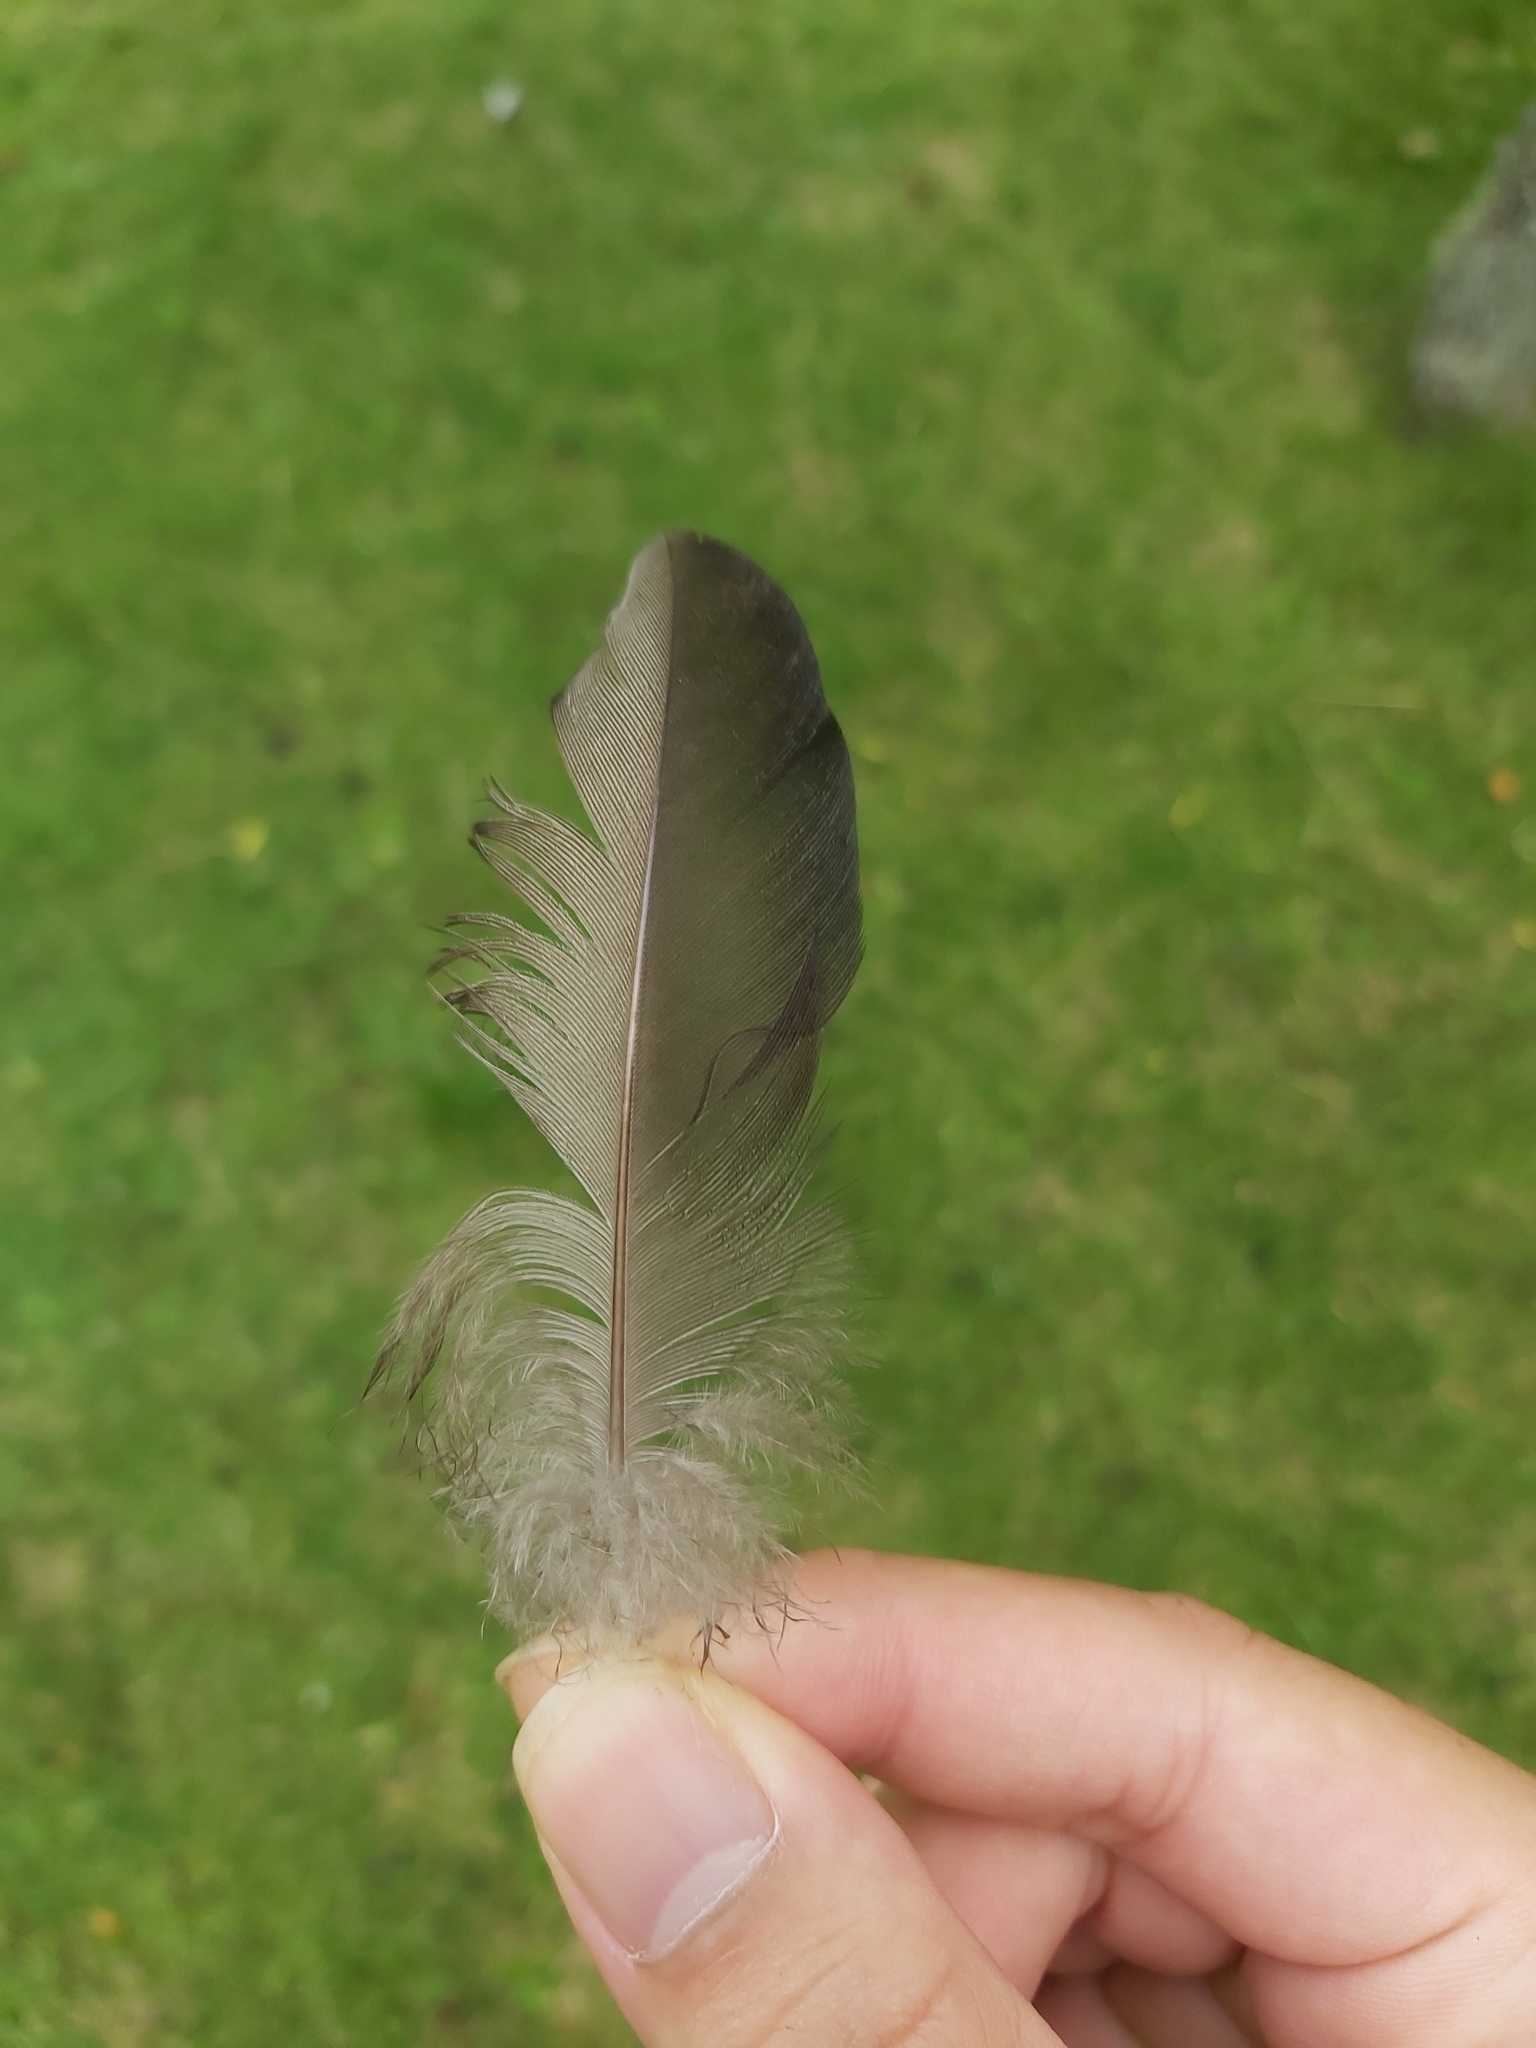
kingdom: Animalia
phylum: Chordata
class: Aves
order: Anseriformes
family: Anatidae
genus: Chenonetta
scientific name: Chenonetta jubata
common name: Maned duck
